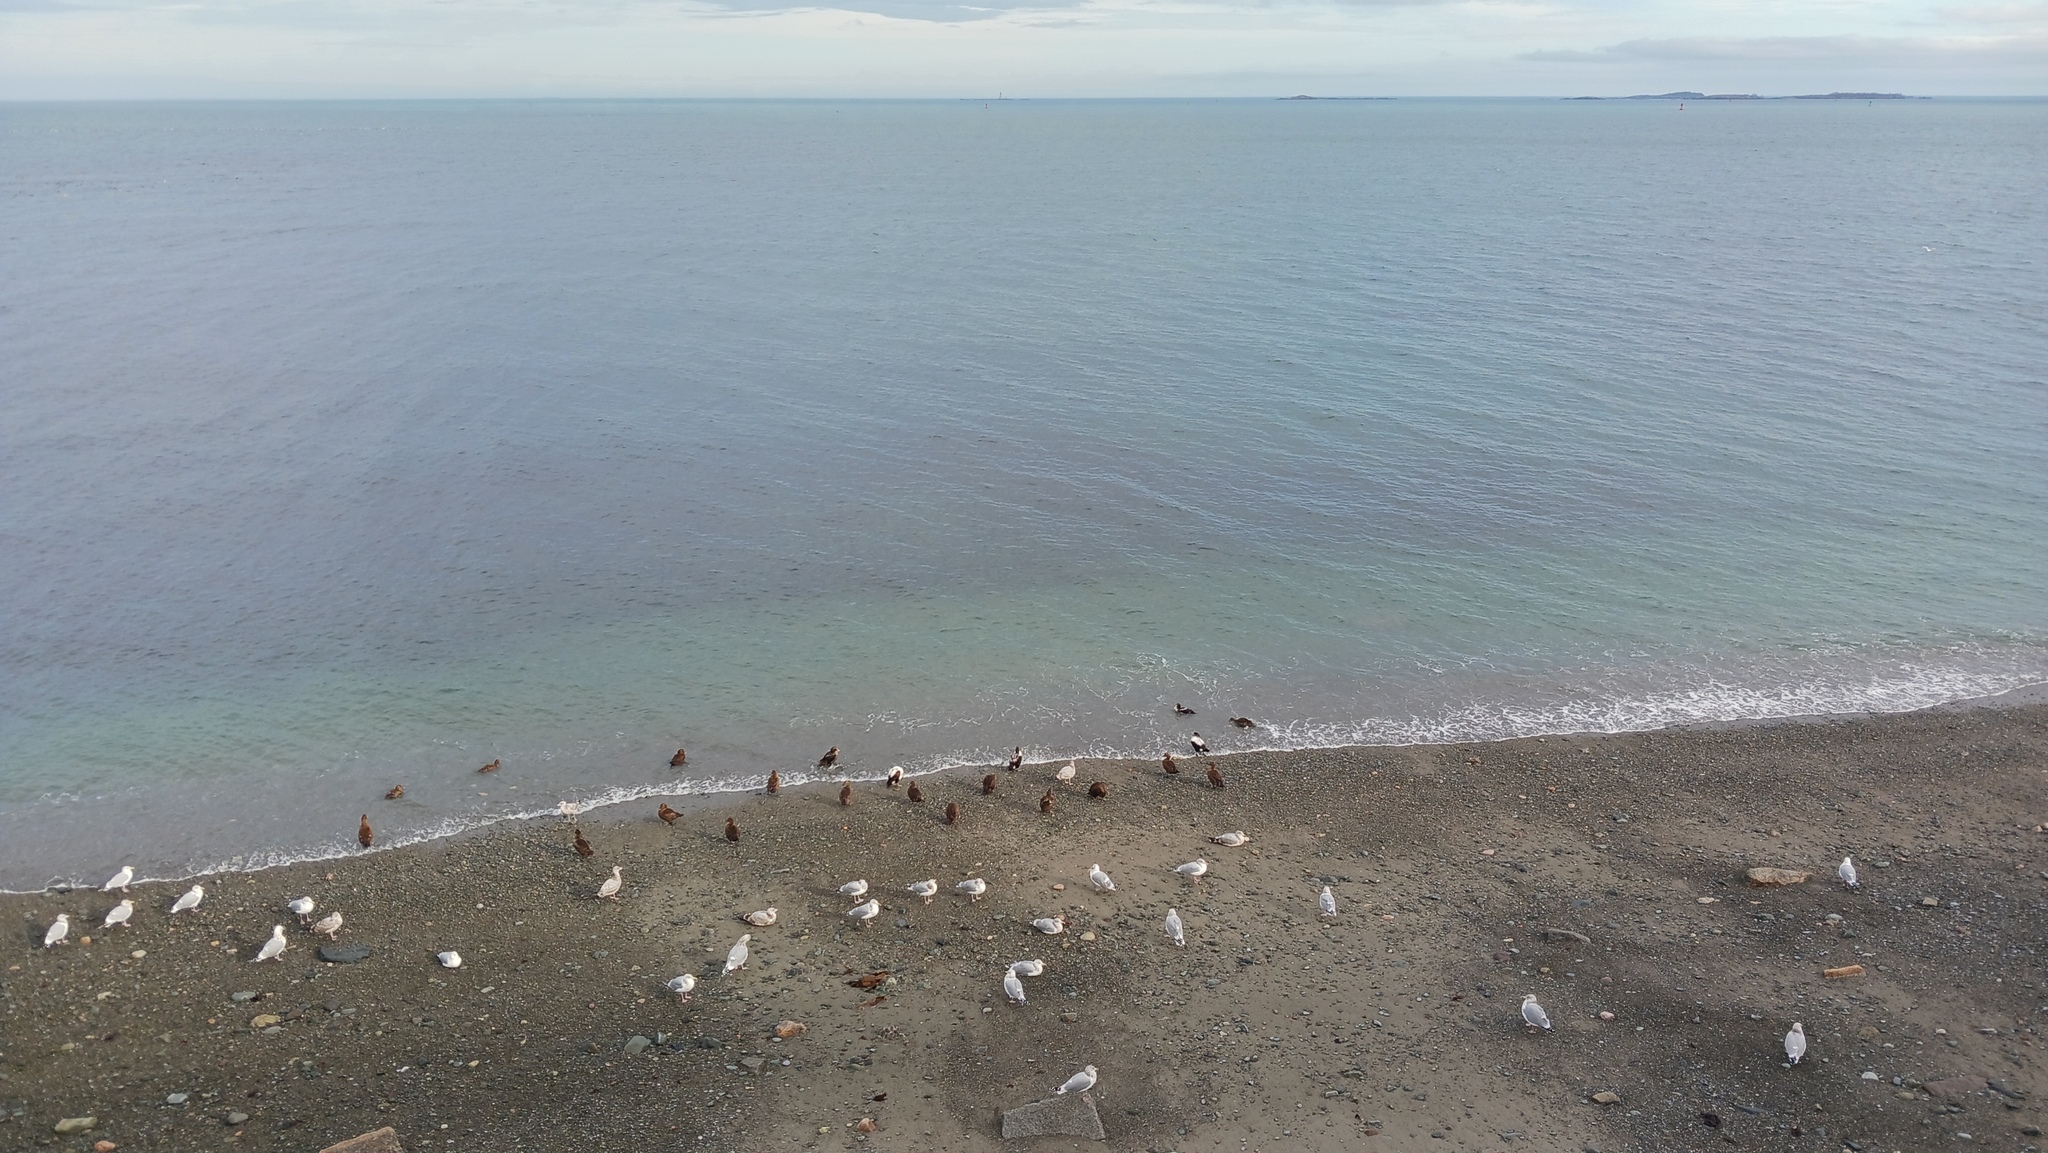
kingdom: Animalia
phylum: Chordata
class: Aves
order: Anseriformes
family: Anatidae
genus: Somateria
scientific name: Somateria mollissima
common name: Common eider
